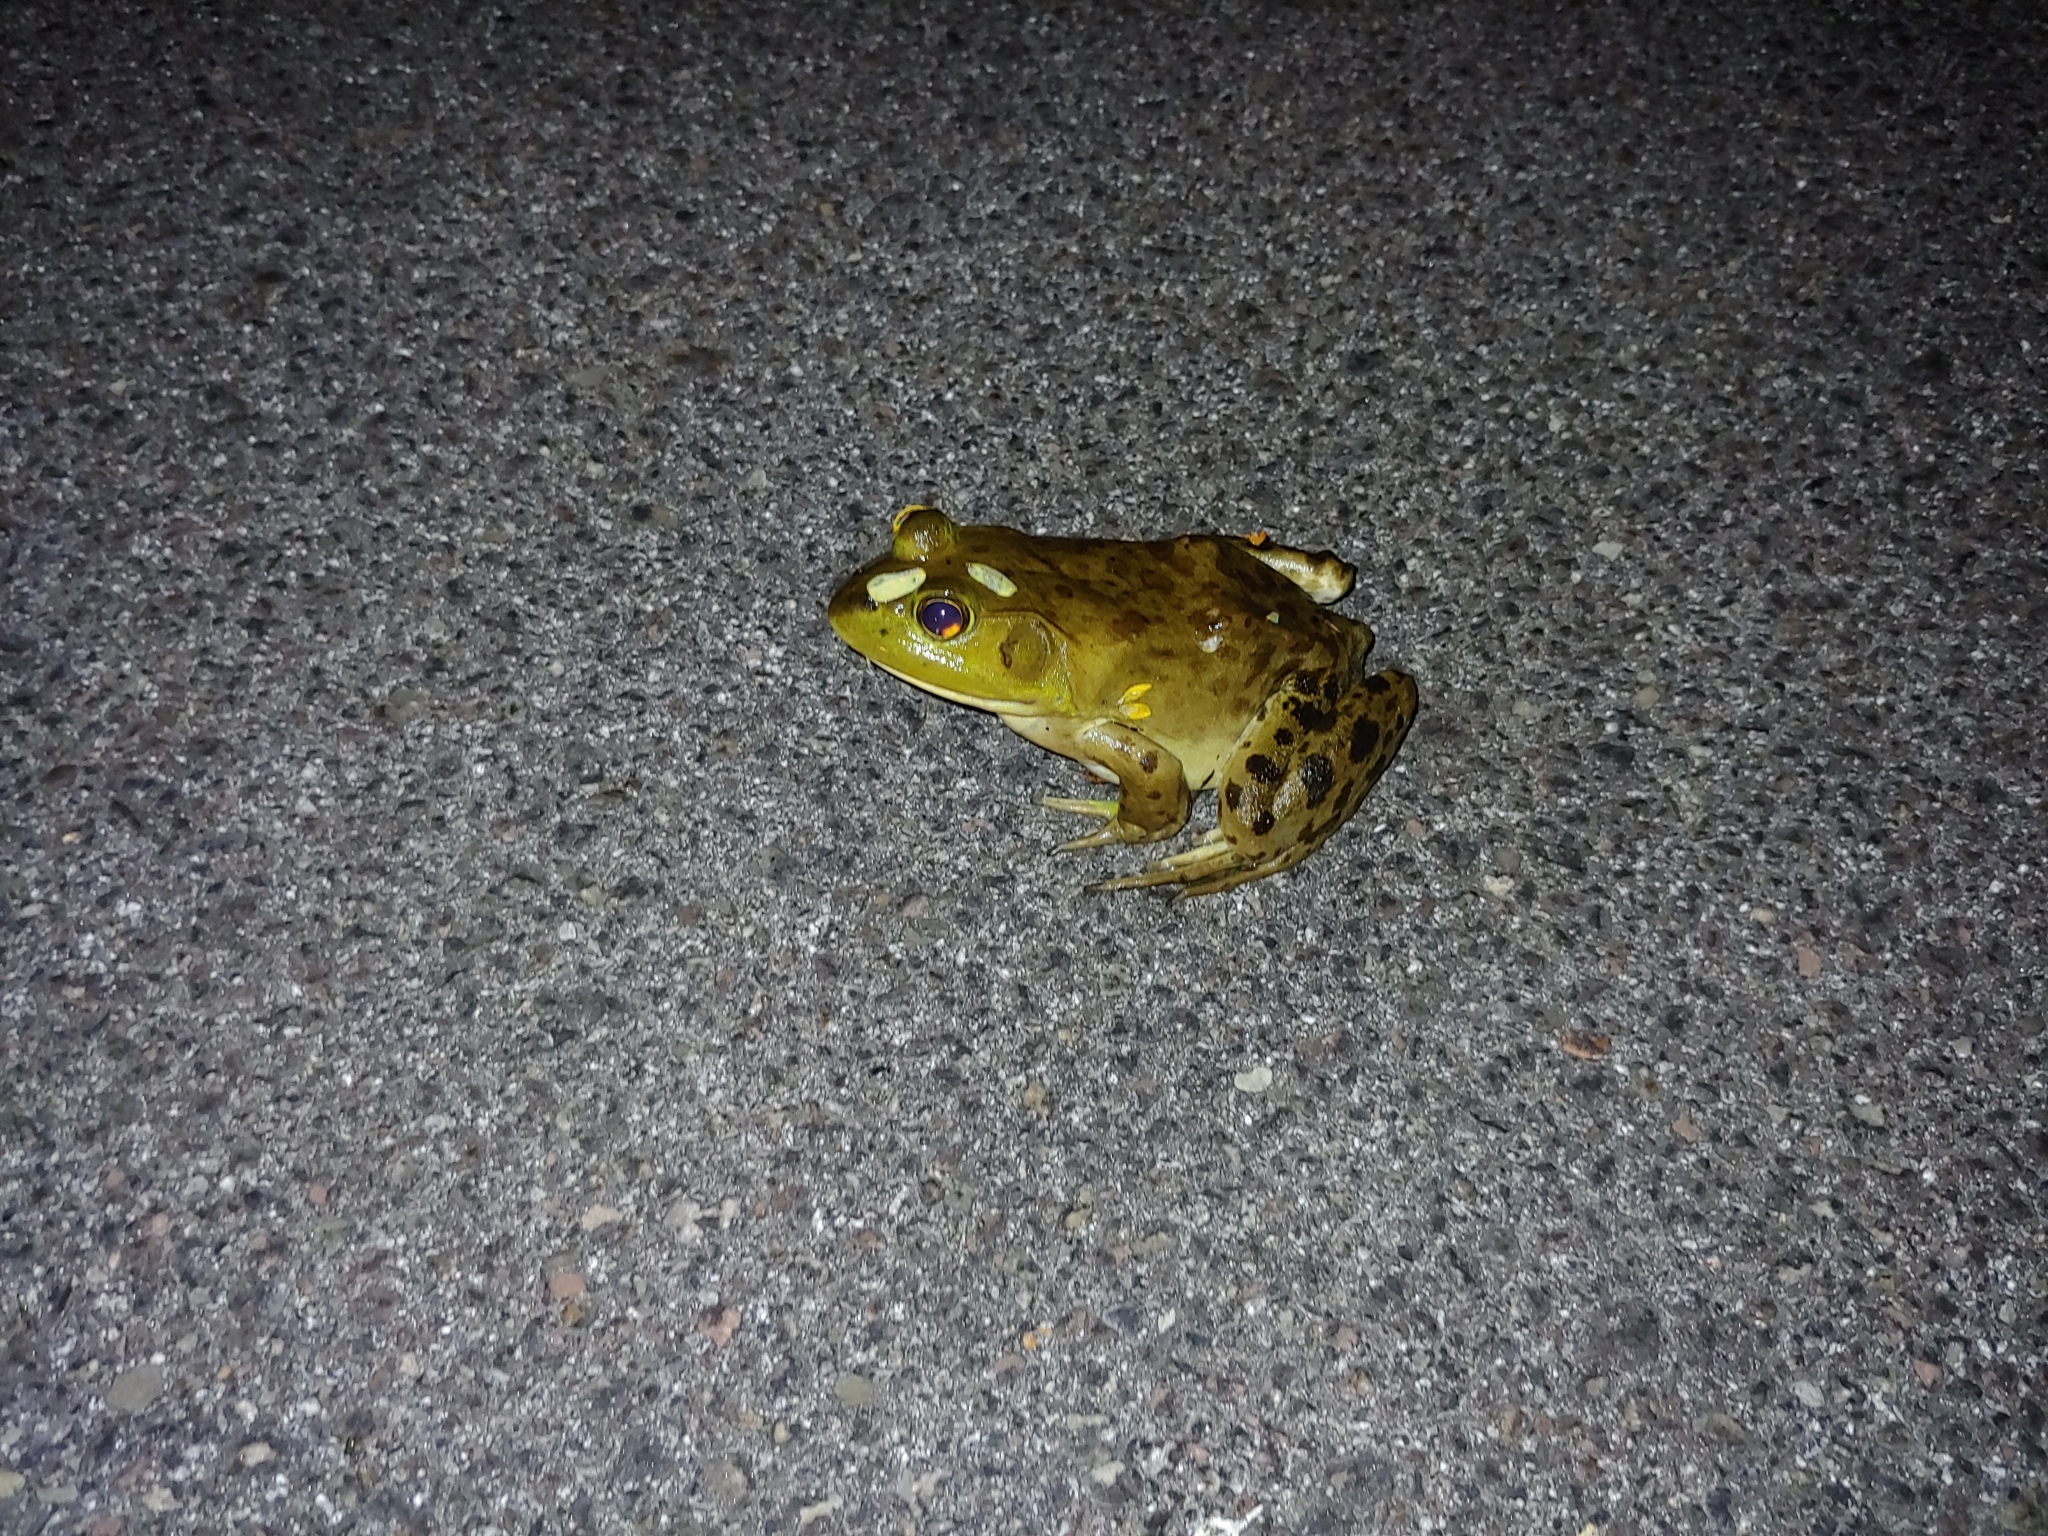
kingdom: Animalia
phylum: Chordata
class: Amphibia
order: Anura
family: Ranidae
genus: Lithobates
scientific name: Lithobates catesbeianus
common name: American bullfrog
